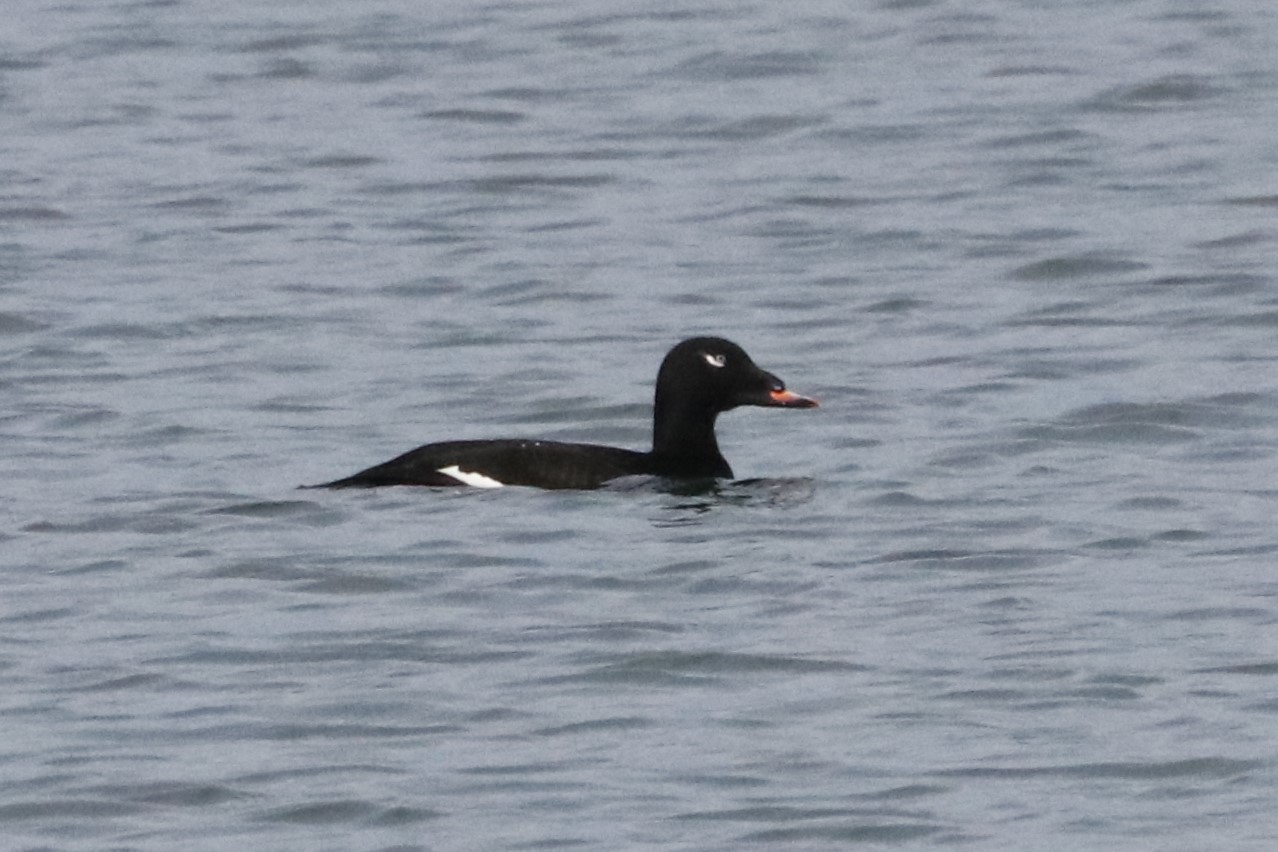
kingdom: Animalia
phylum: Chordata
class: Aves
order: Anseriformes
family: Anatidae
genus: Melanitta
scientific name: Melanitta deglandi
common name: White-winged scoter
